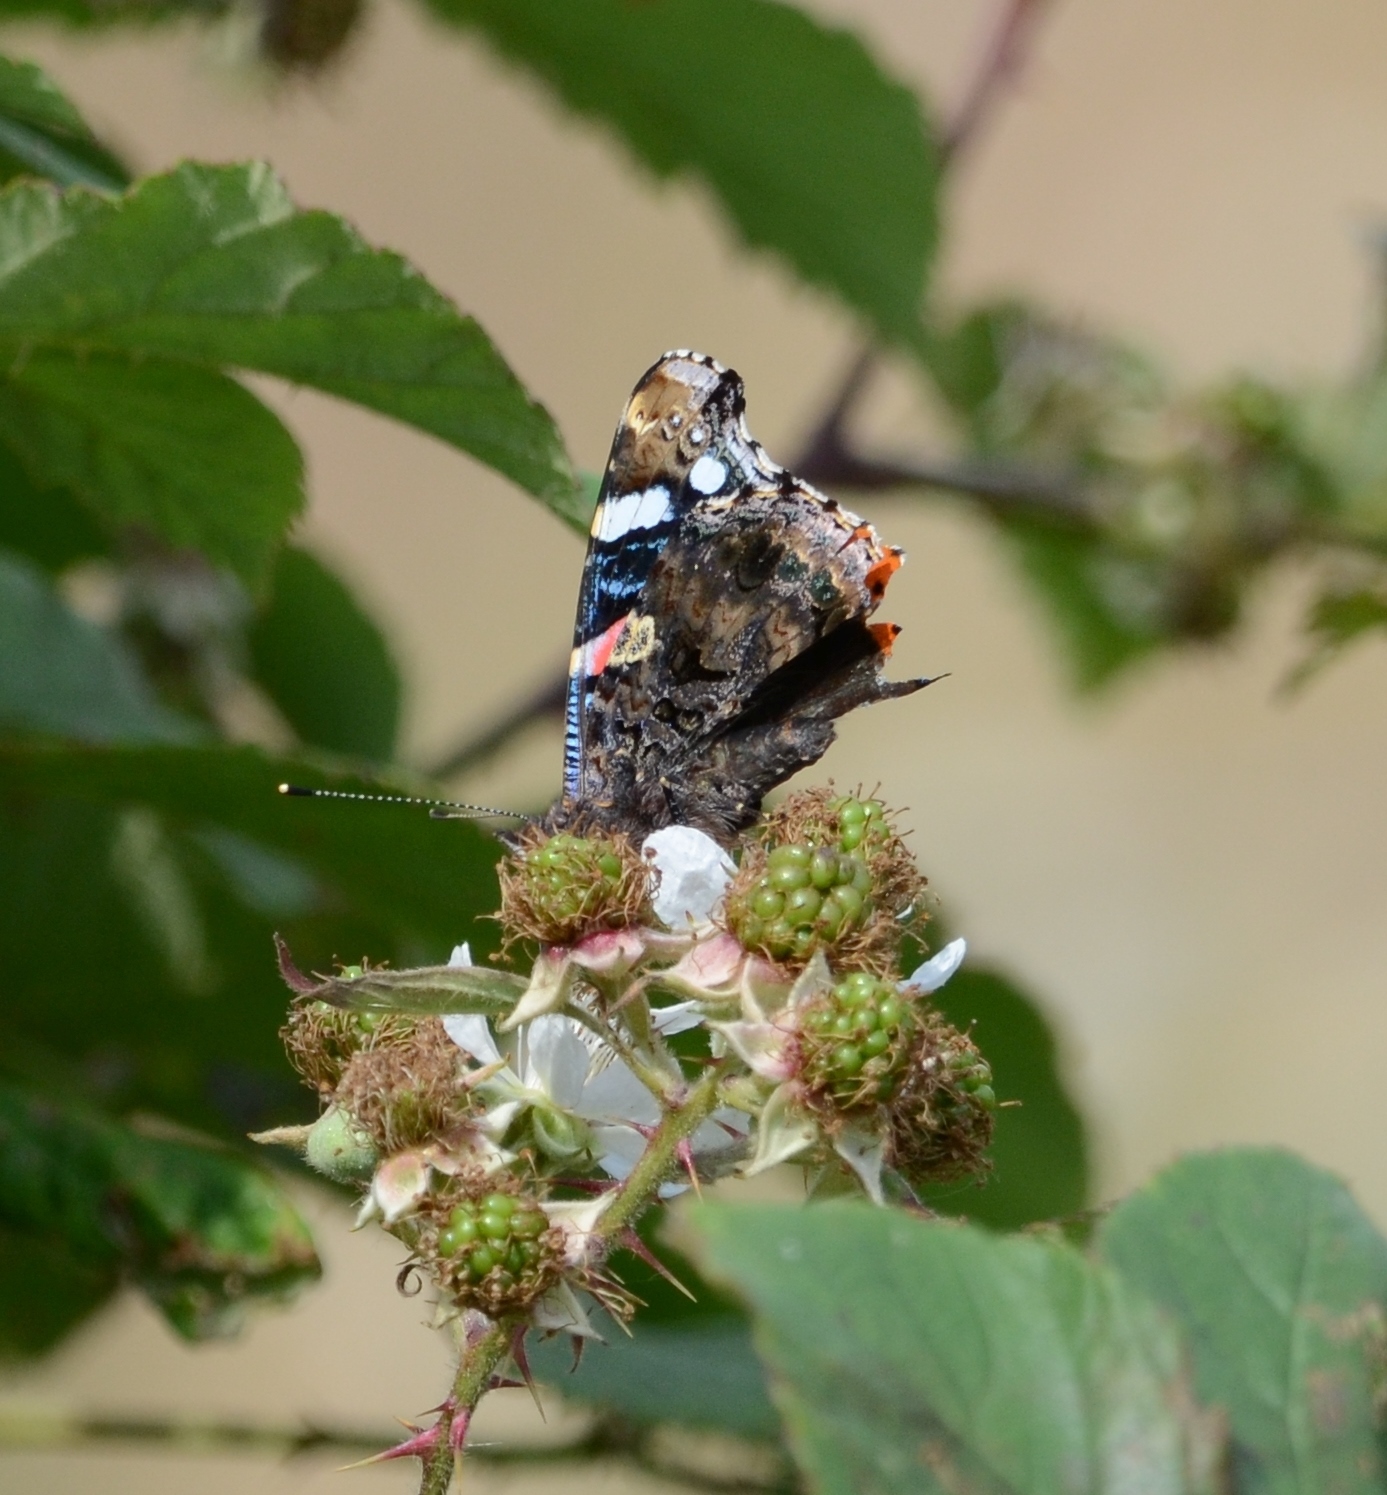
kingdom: Animalia
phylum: Arthropoda
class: Insecta
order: Lepidoptera
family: Nymphalidae
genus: Vanessa
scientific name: Vanessa atalanta
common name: Red admiral
